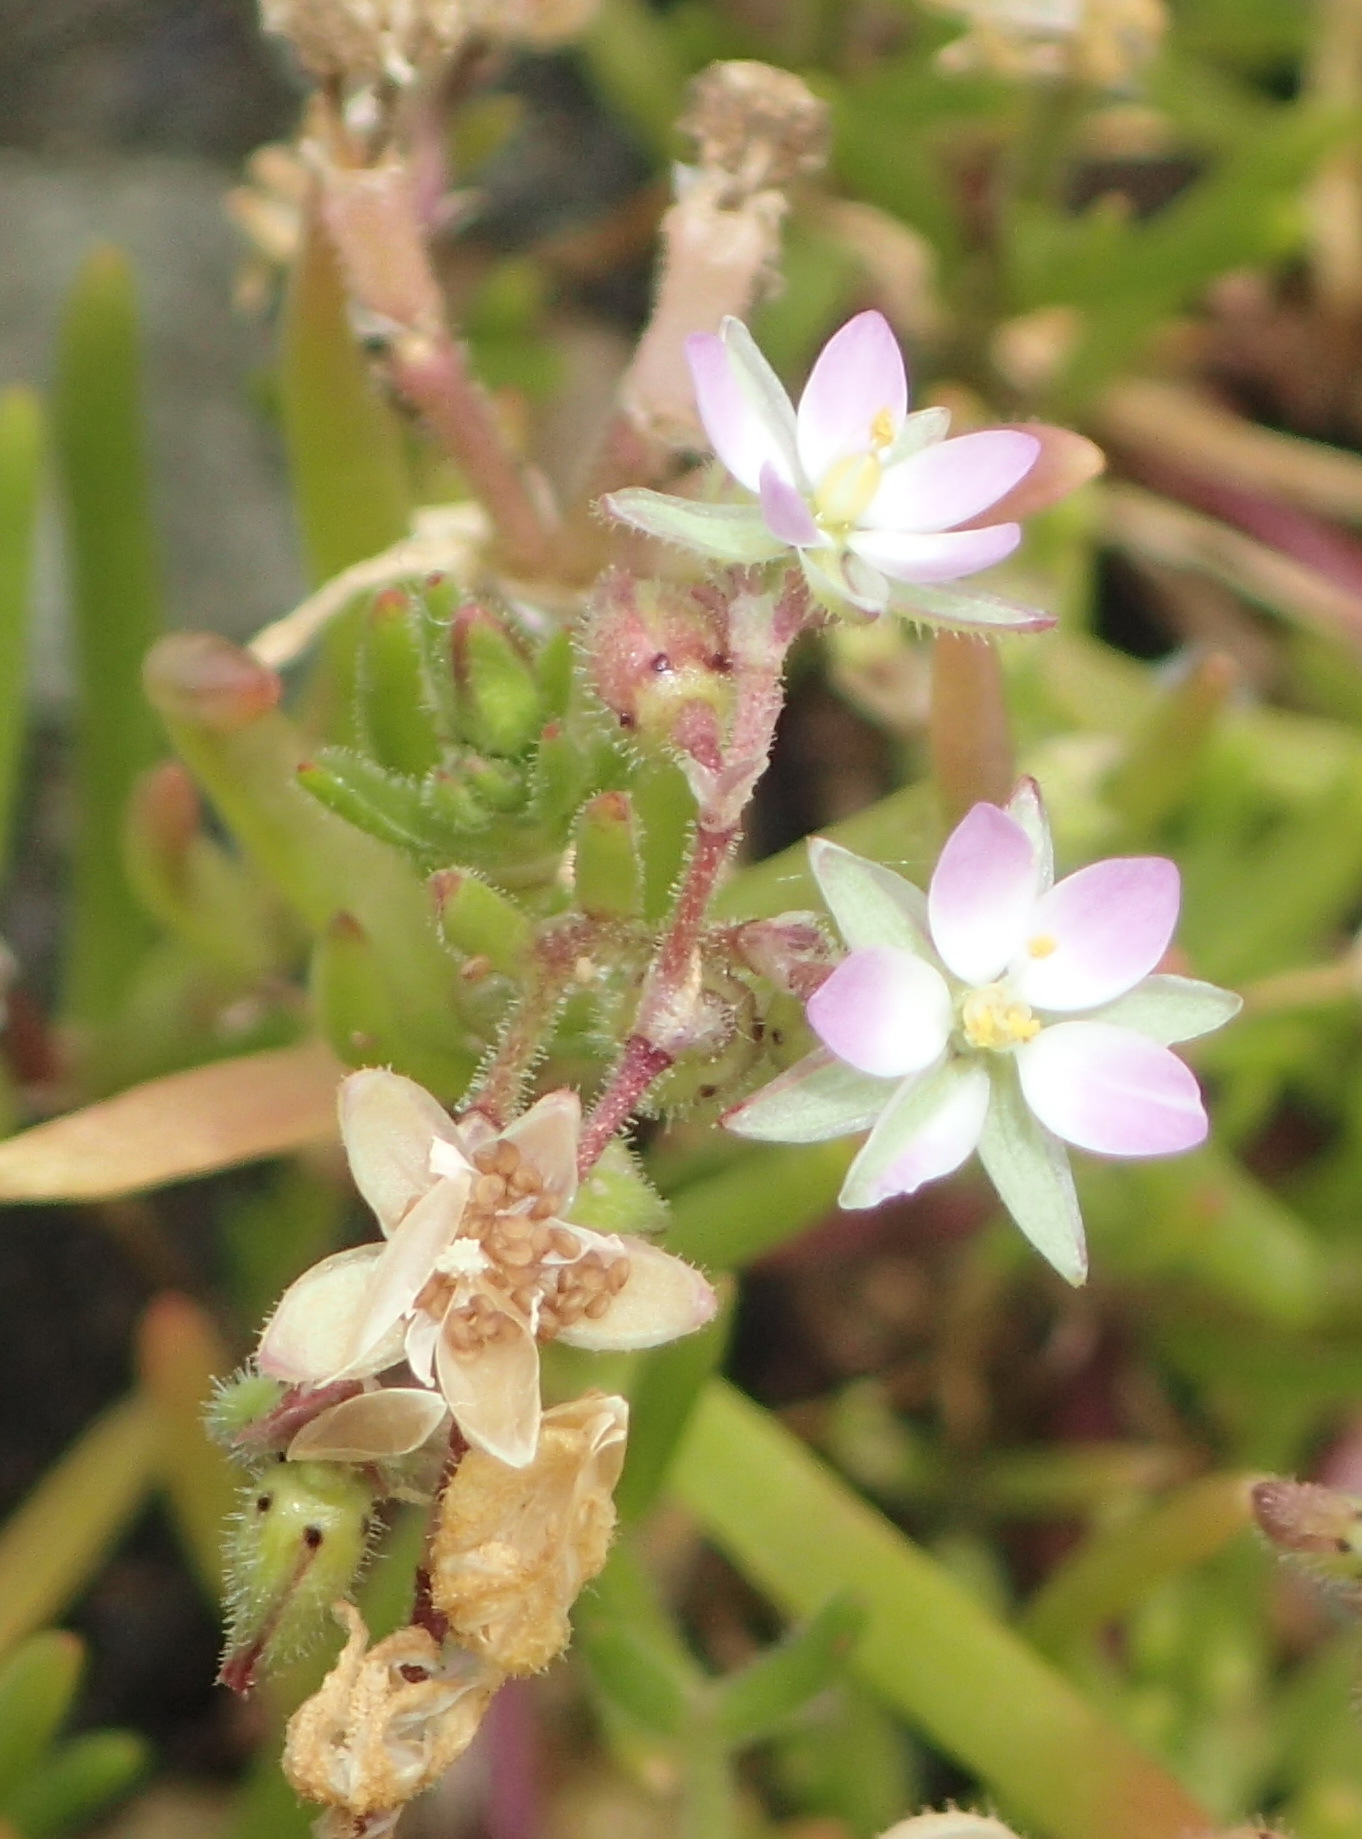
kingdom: Plantae
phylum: Tracheophyta
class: Magnoliopsida
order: Caryophyllales
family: Caryophyllaceae
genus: Spergularia
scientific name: Spergularia media
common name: Greater sea-spurrey
